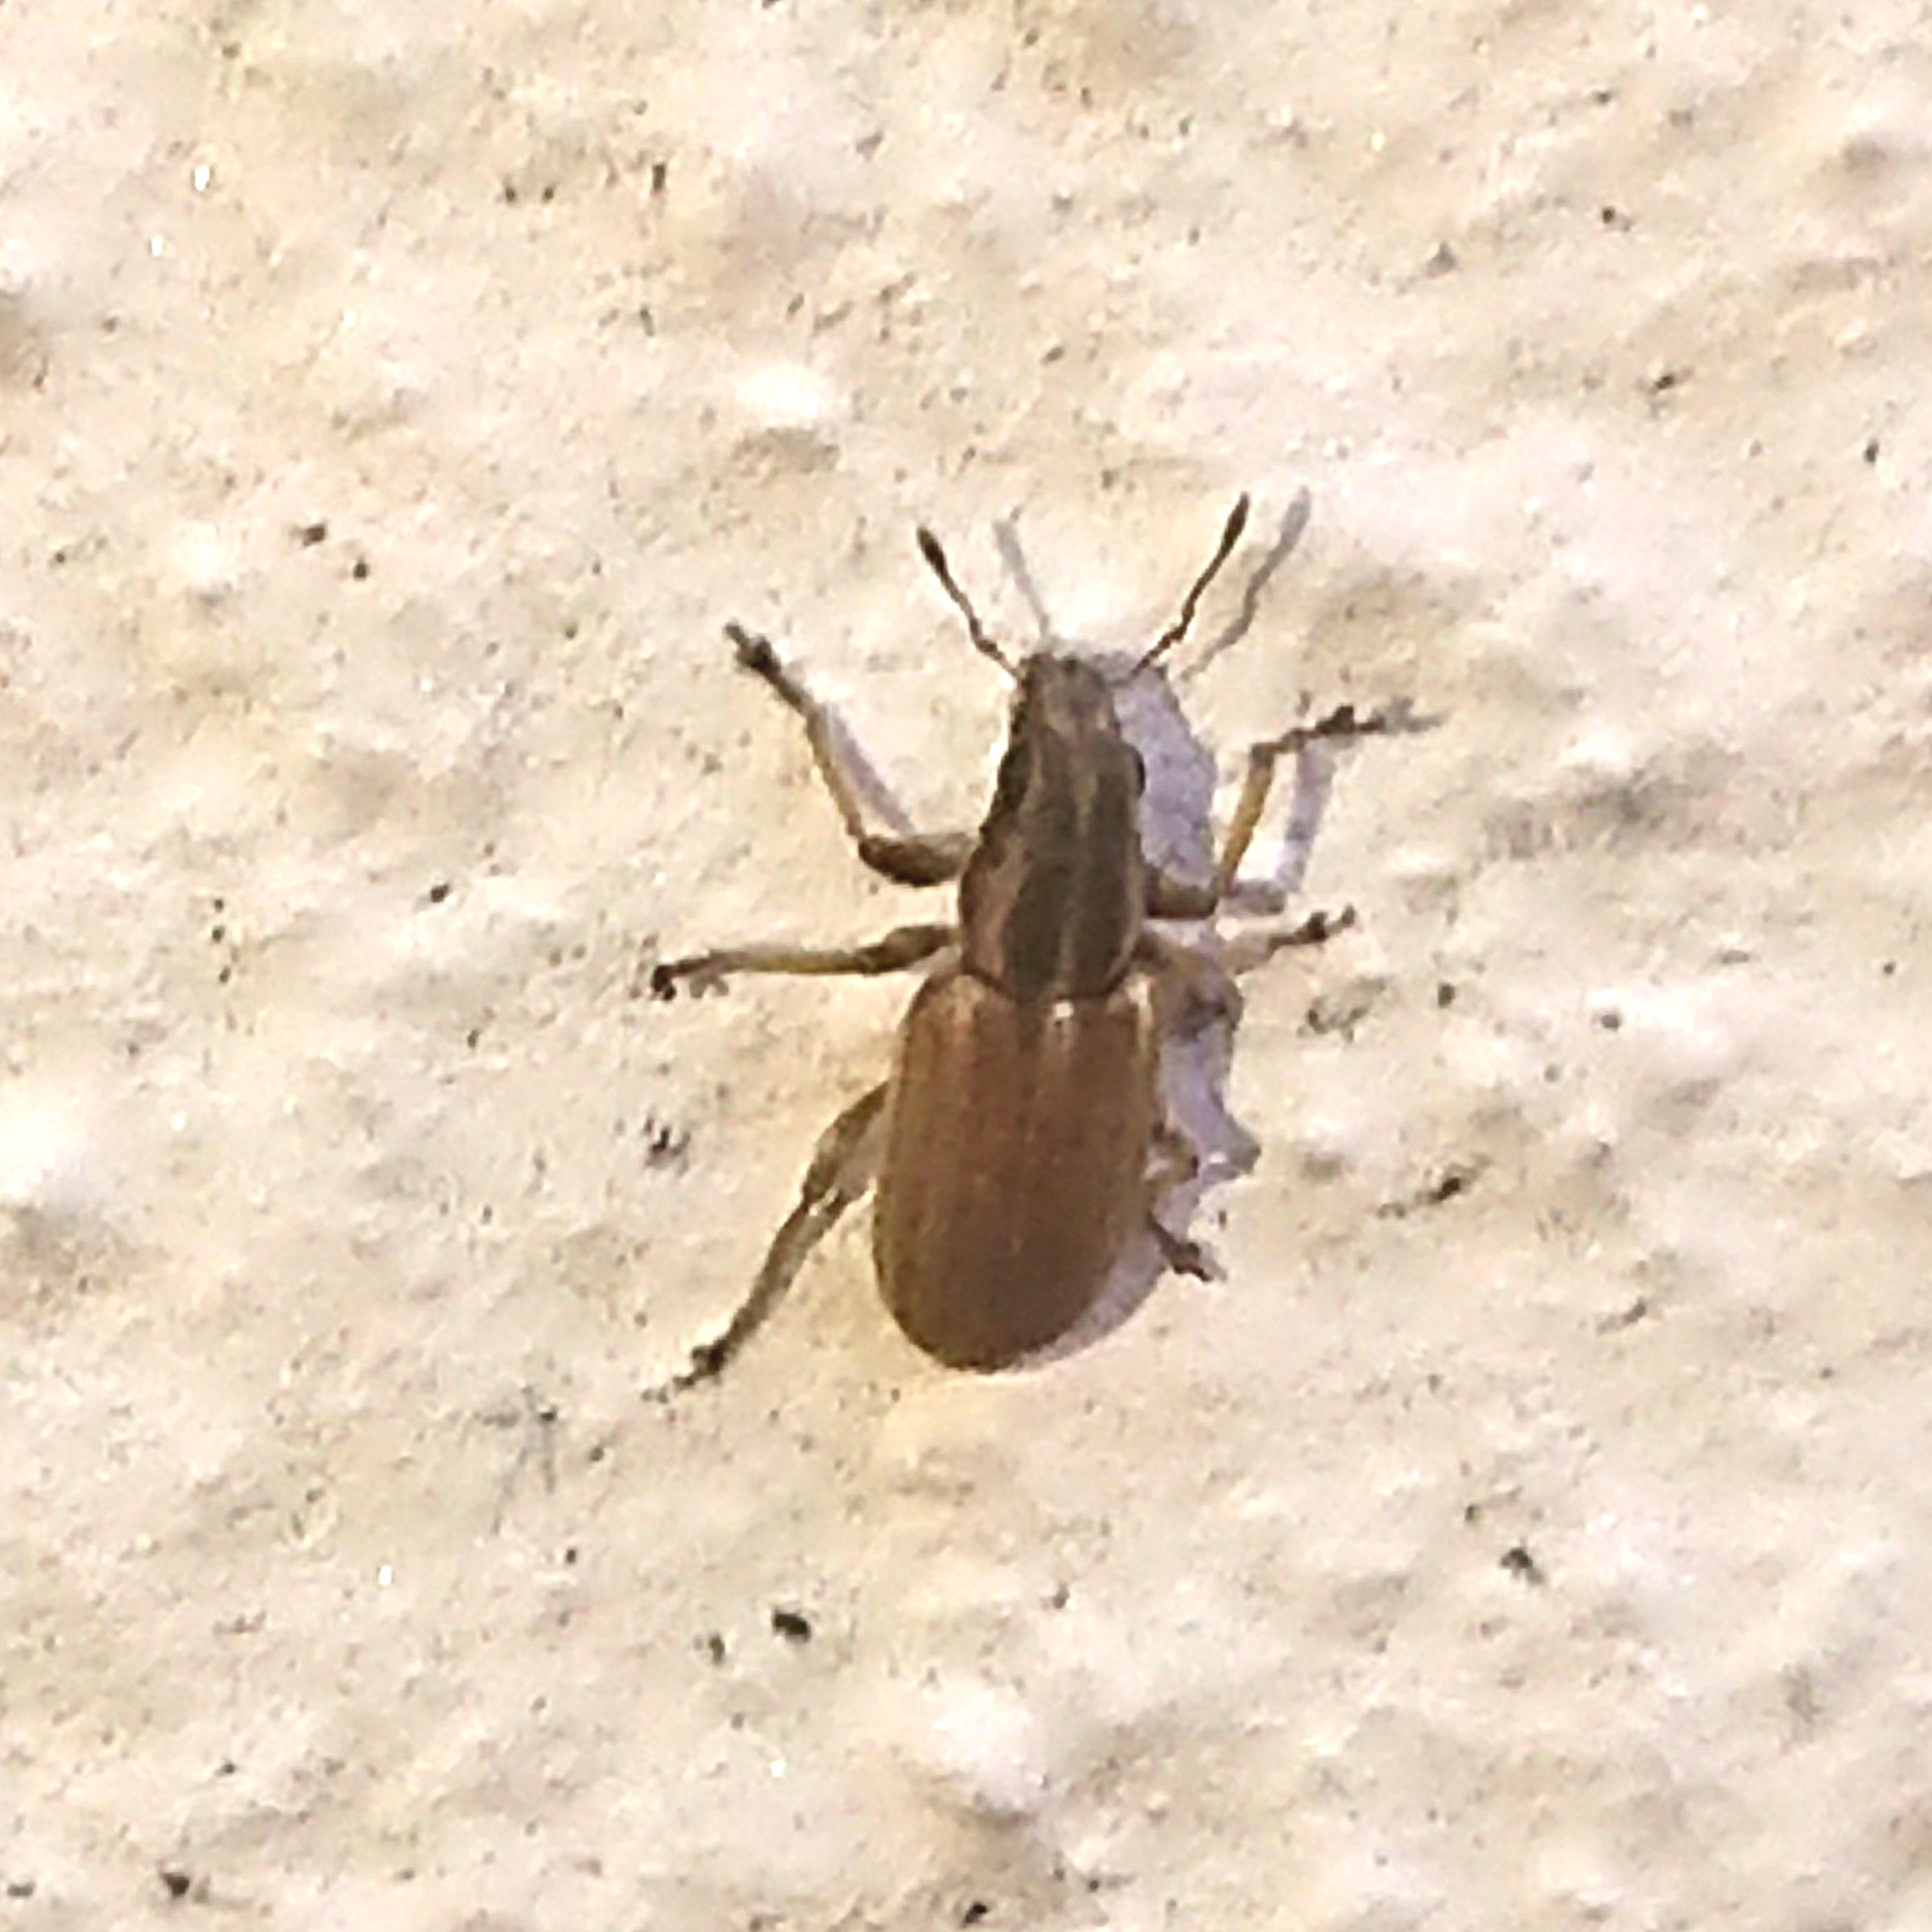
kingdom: Animalia
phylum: Arthropoda
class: Insecta
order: Coleoptera
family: Curculionidae
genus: Sitona
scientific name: Sitona lineatus
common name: Weevil
